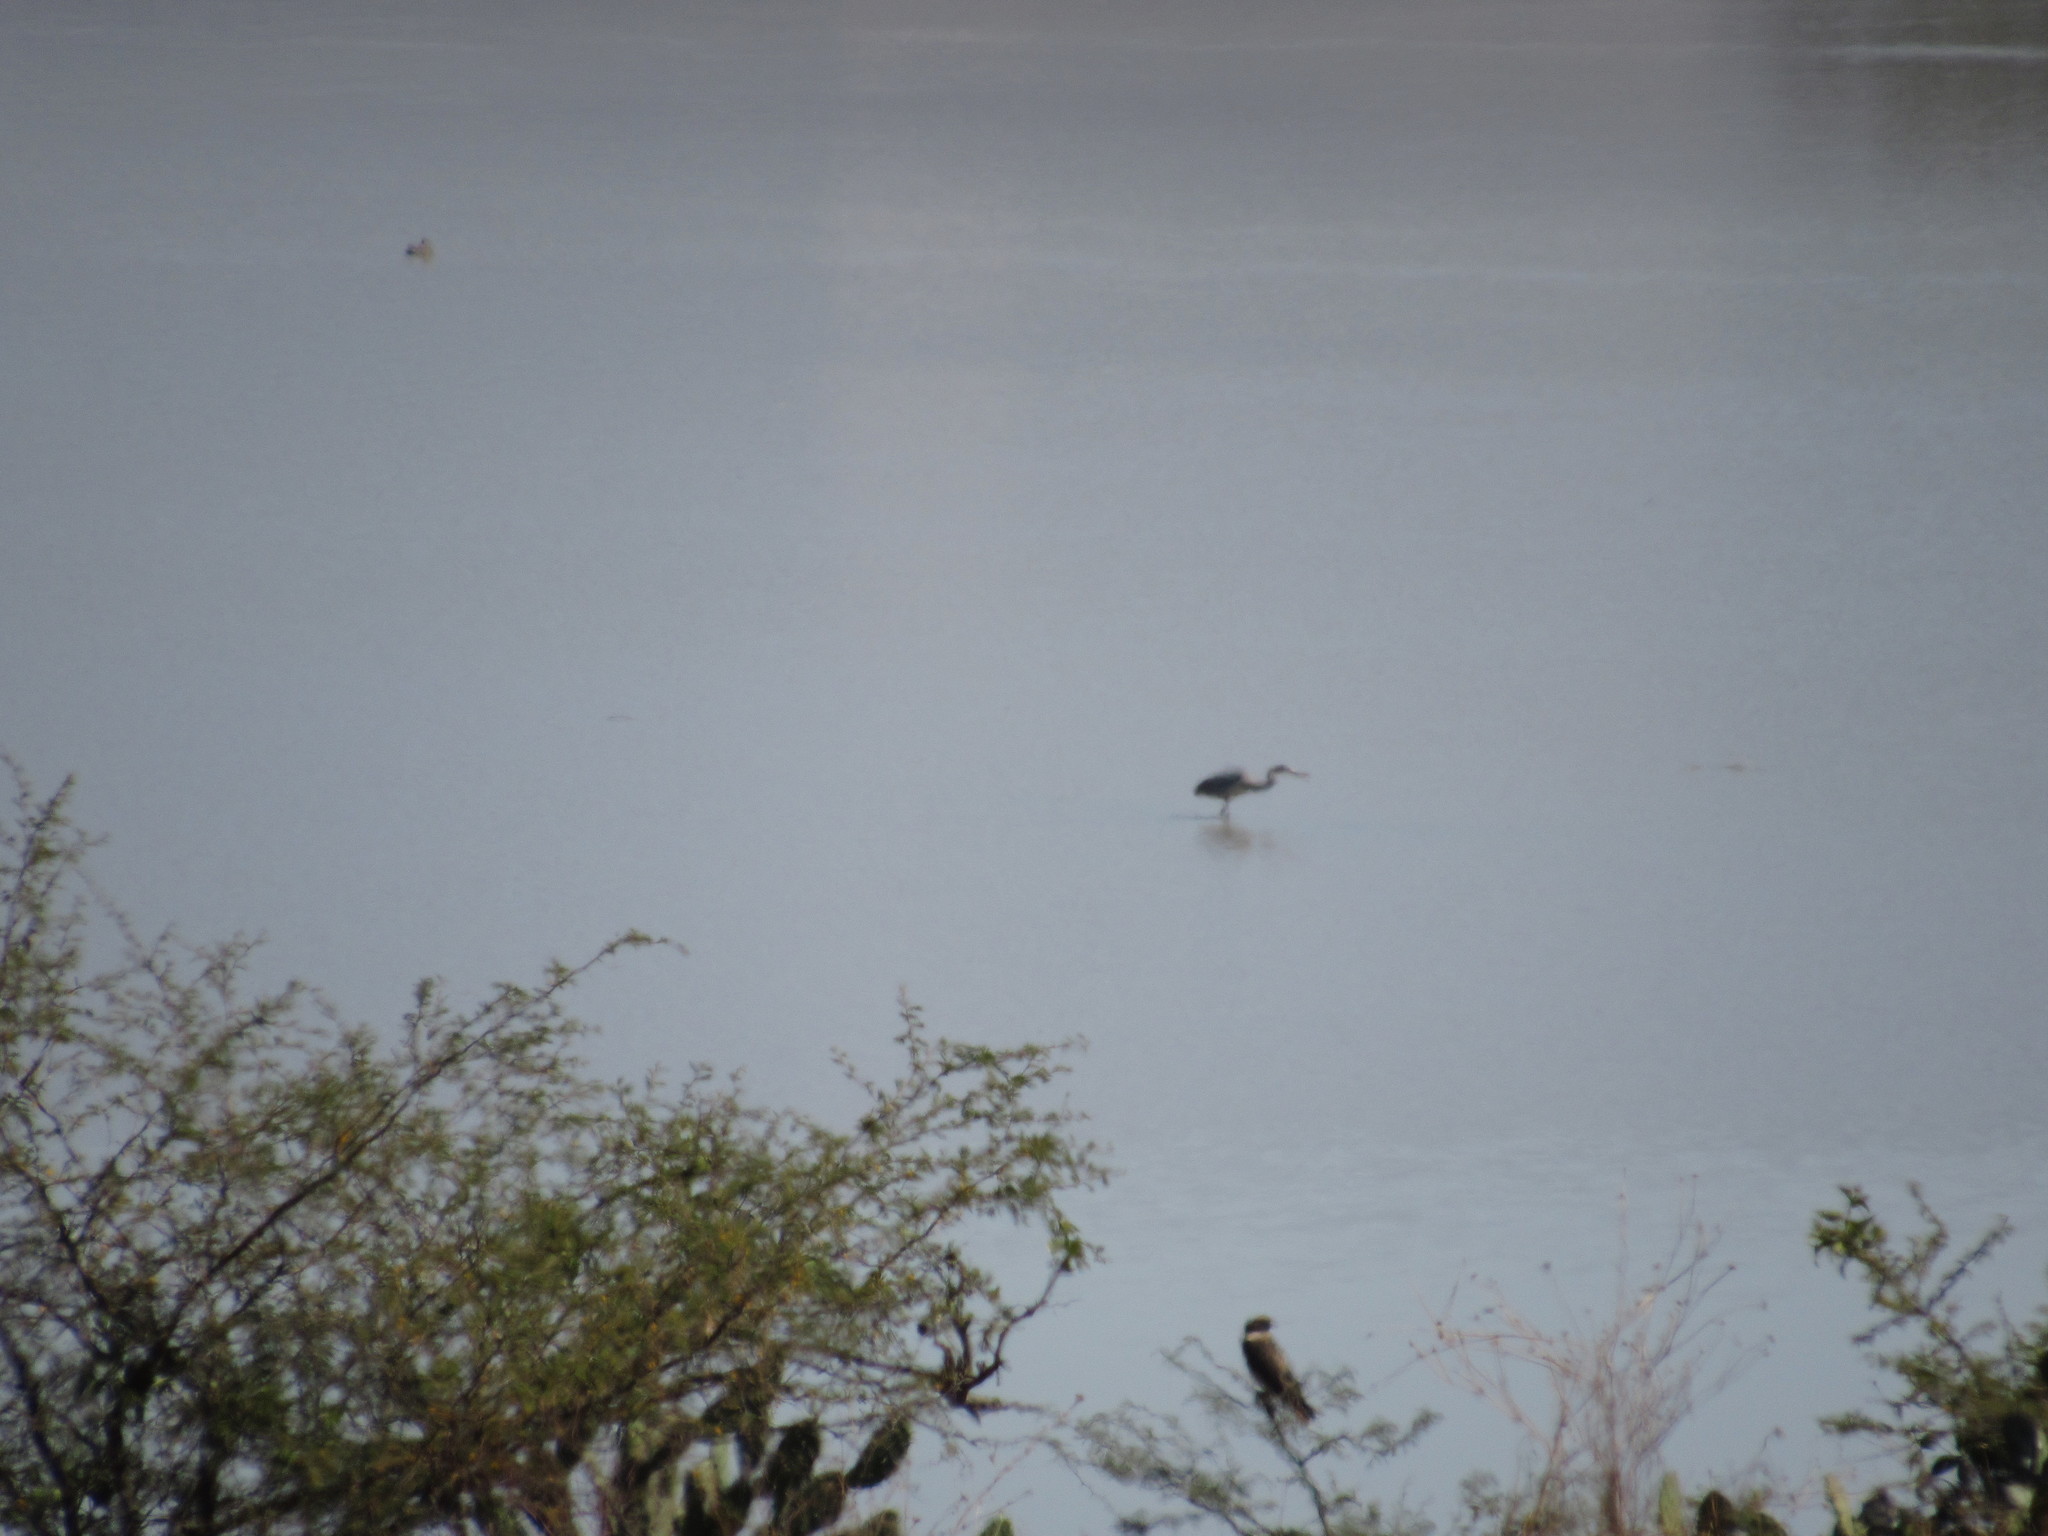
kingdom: Animalia
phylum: Chordata
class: Aves
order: Pelecaniformes
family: Ardeidae
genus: Ardea
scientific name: Ardea herodias
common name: Great blue heron
